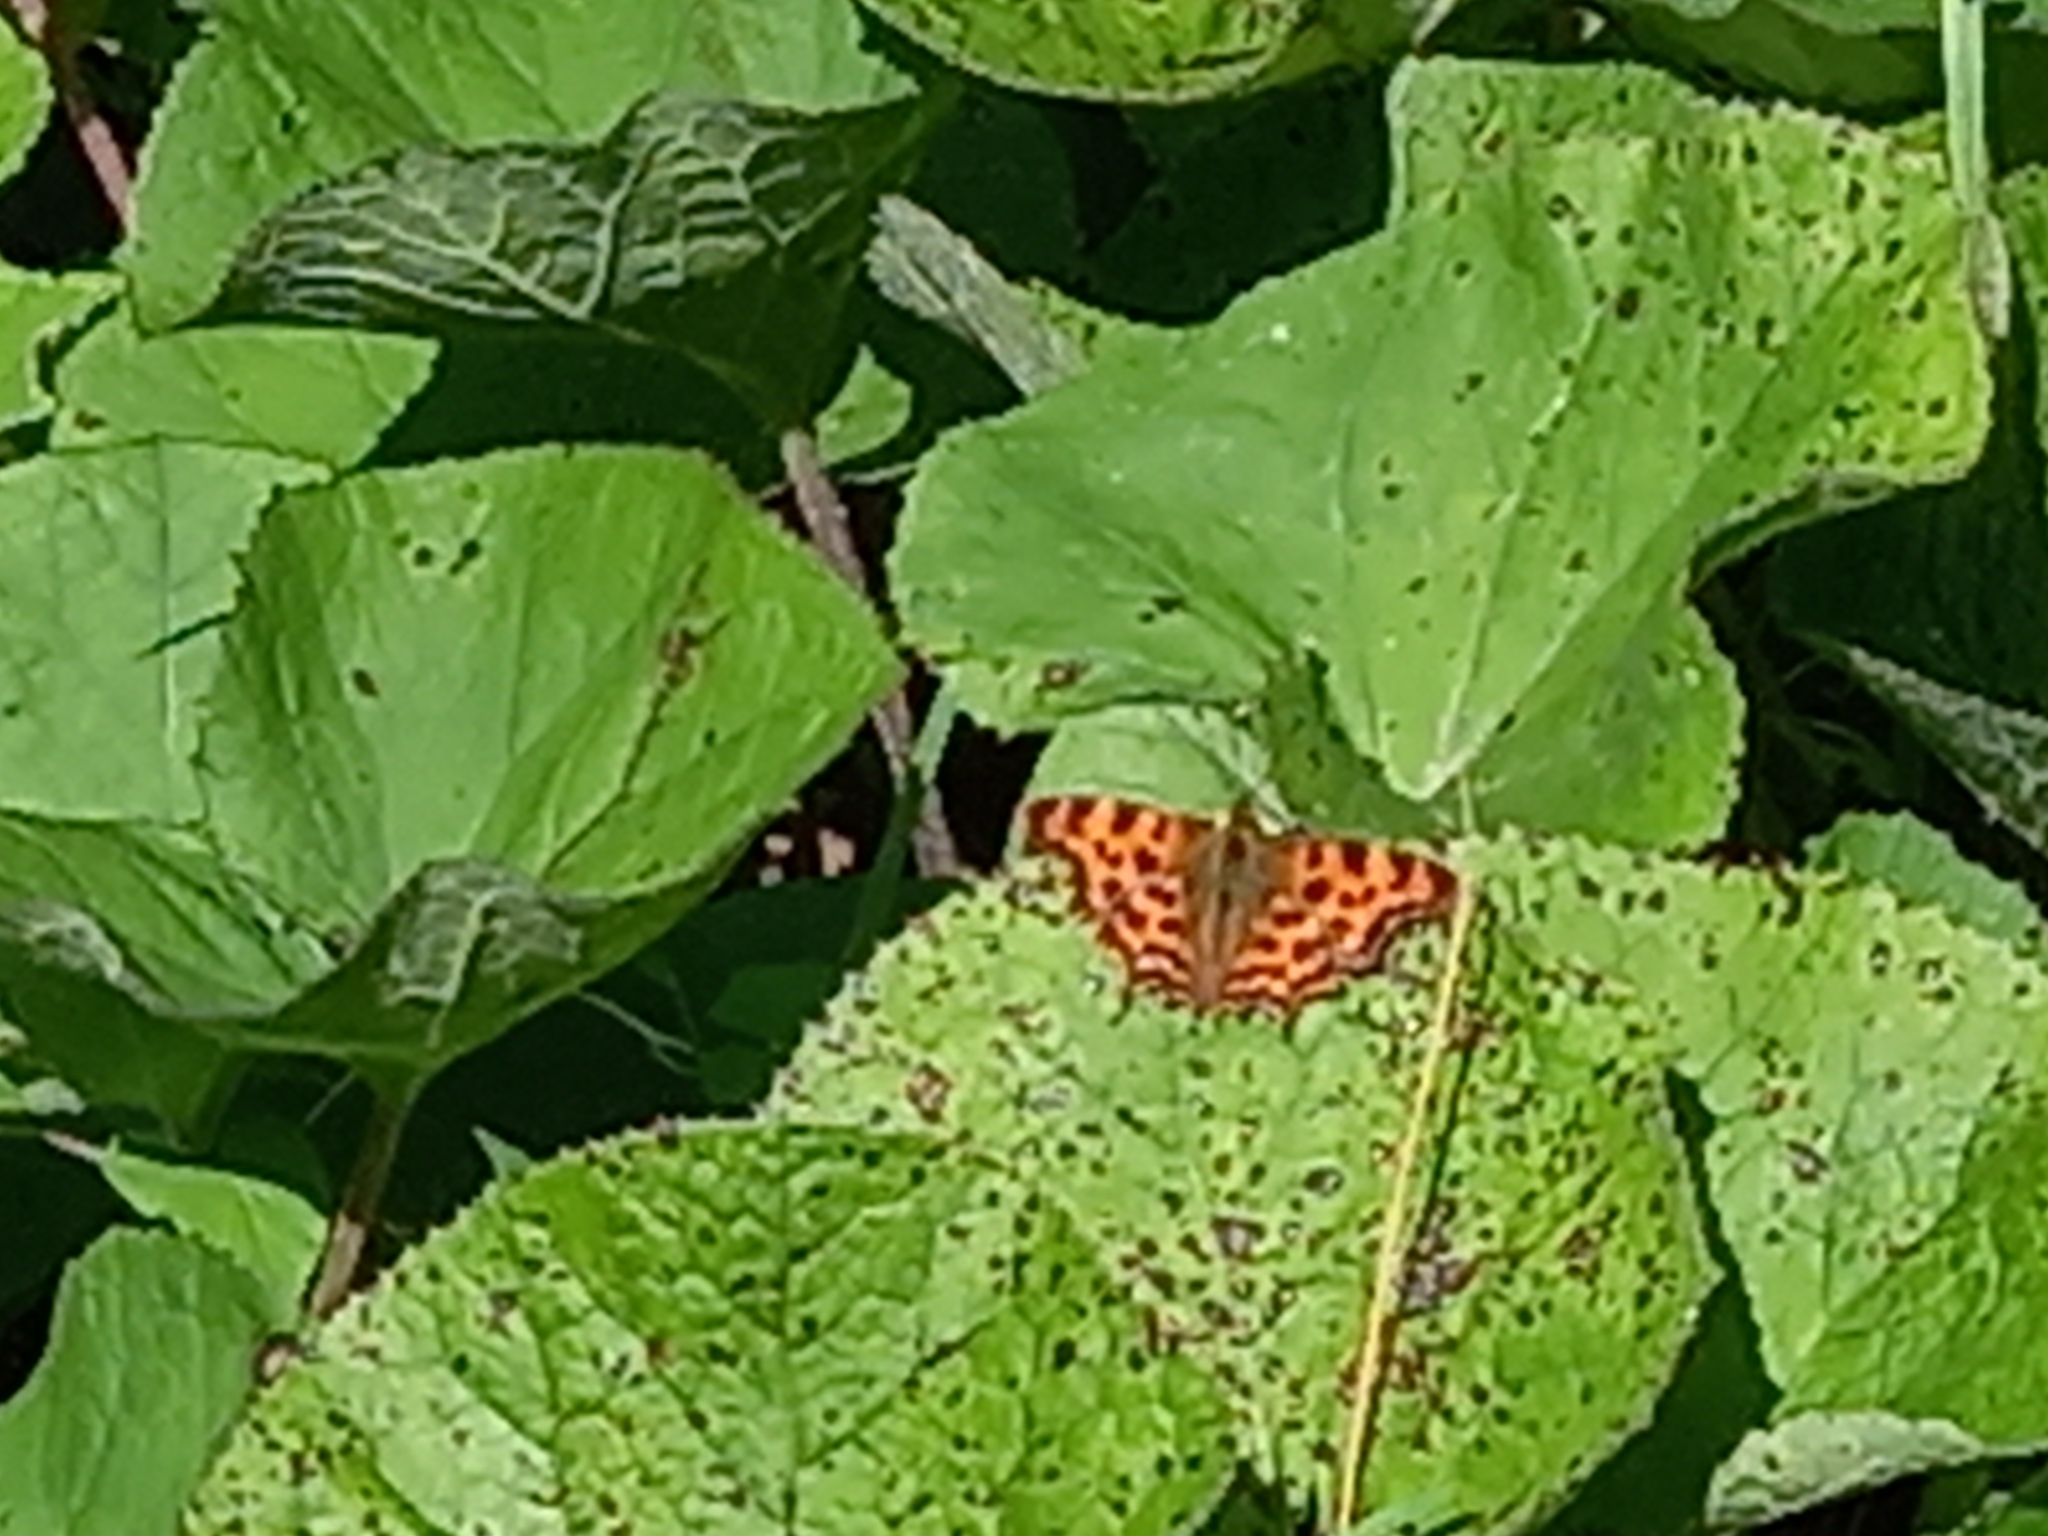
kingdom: Animalia
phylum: Arthropoda
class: Insecta
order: Lepidoptera
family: Nymphalidae
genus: Polygonia
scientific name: Polygonia c-album
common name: Comma
